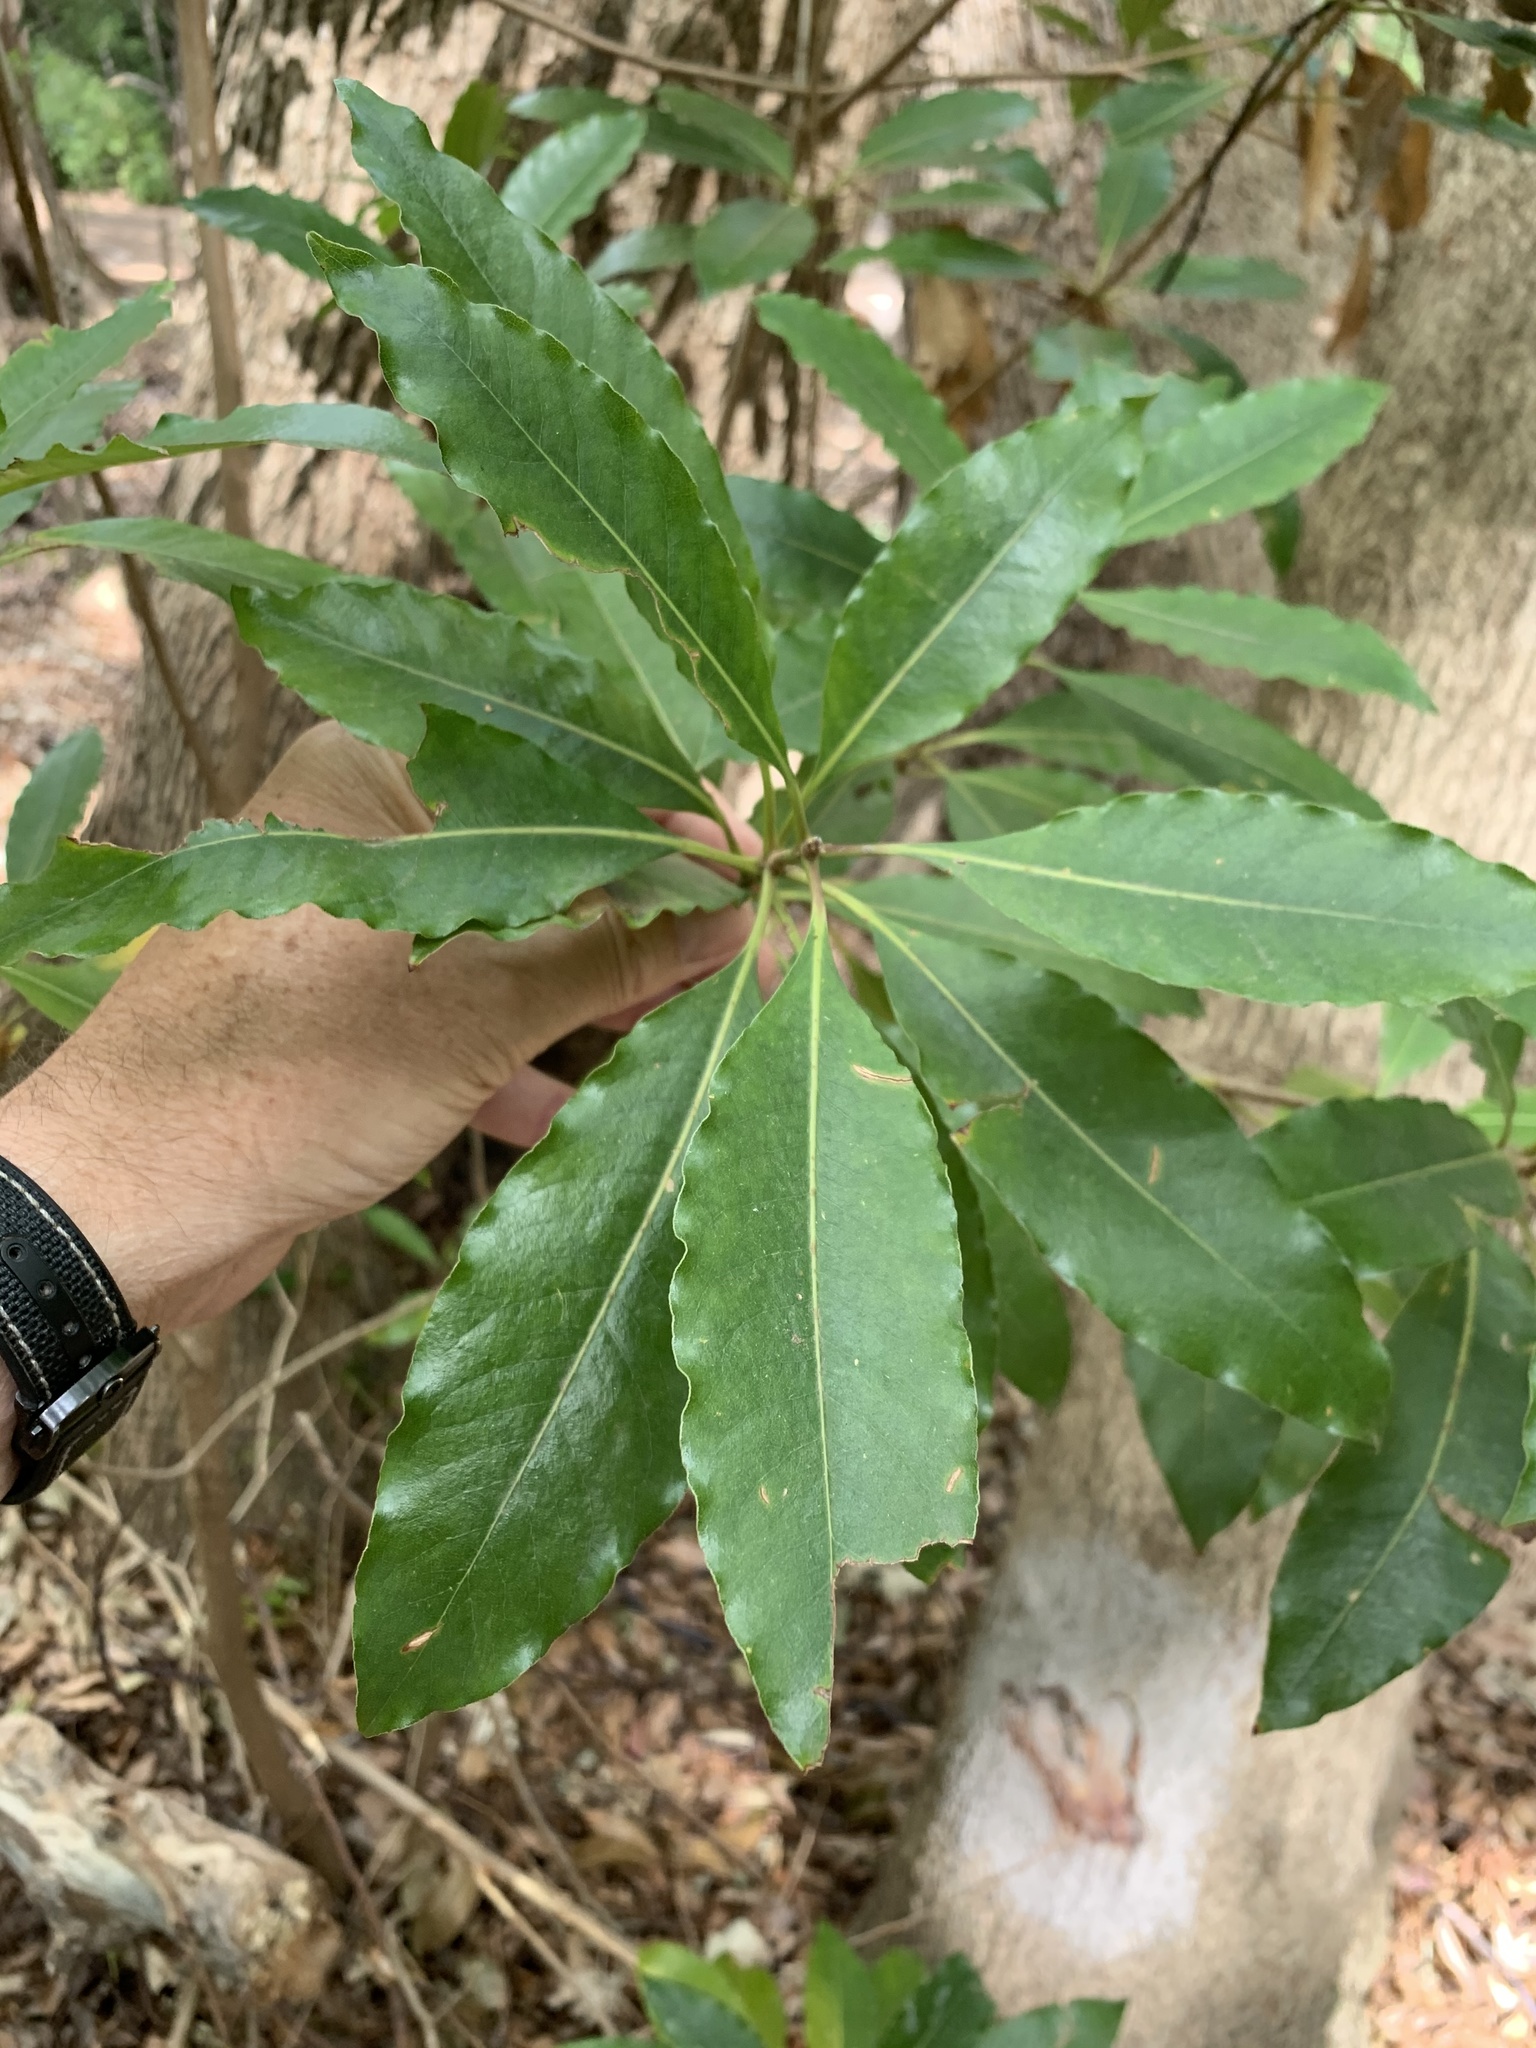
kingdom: Plantae
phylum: Tracheophyta
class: Magnoliopsida
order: Apiales
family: Pittosporaceae
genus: Pittosporum
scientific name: Pittosporum undulatum
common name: Australian cheesewood
